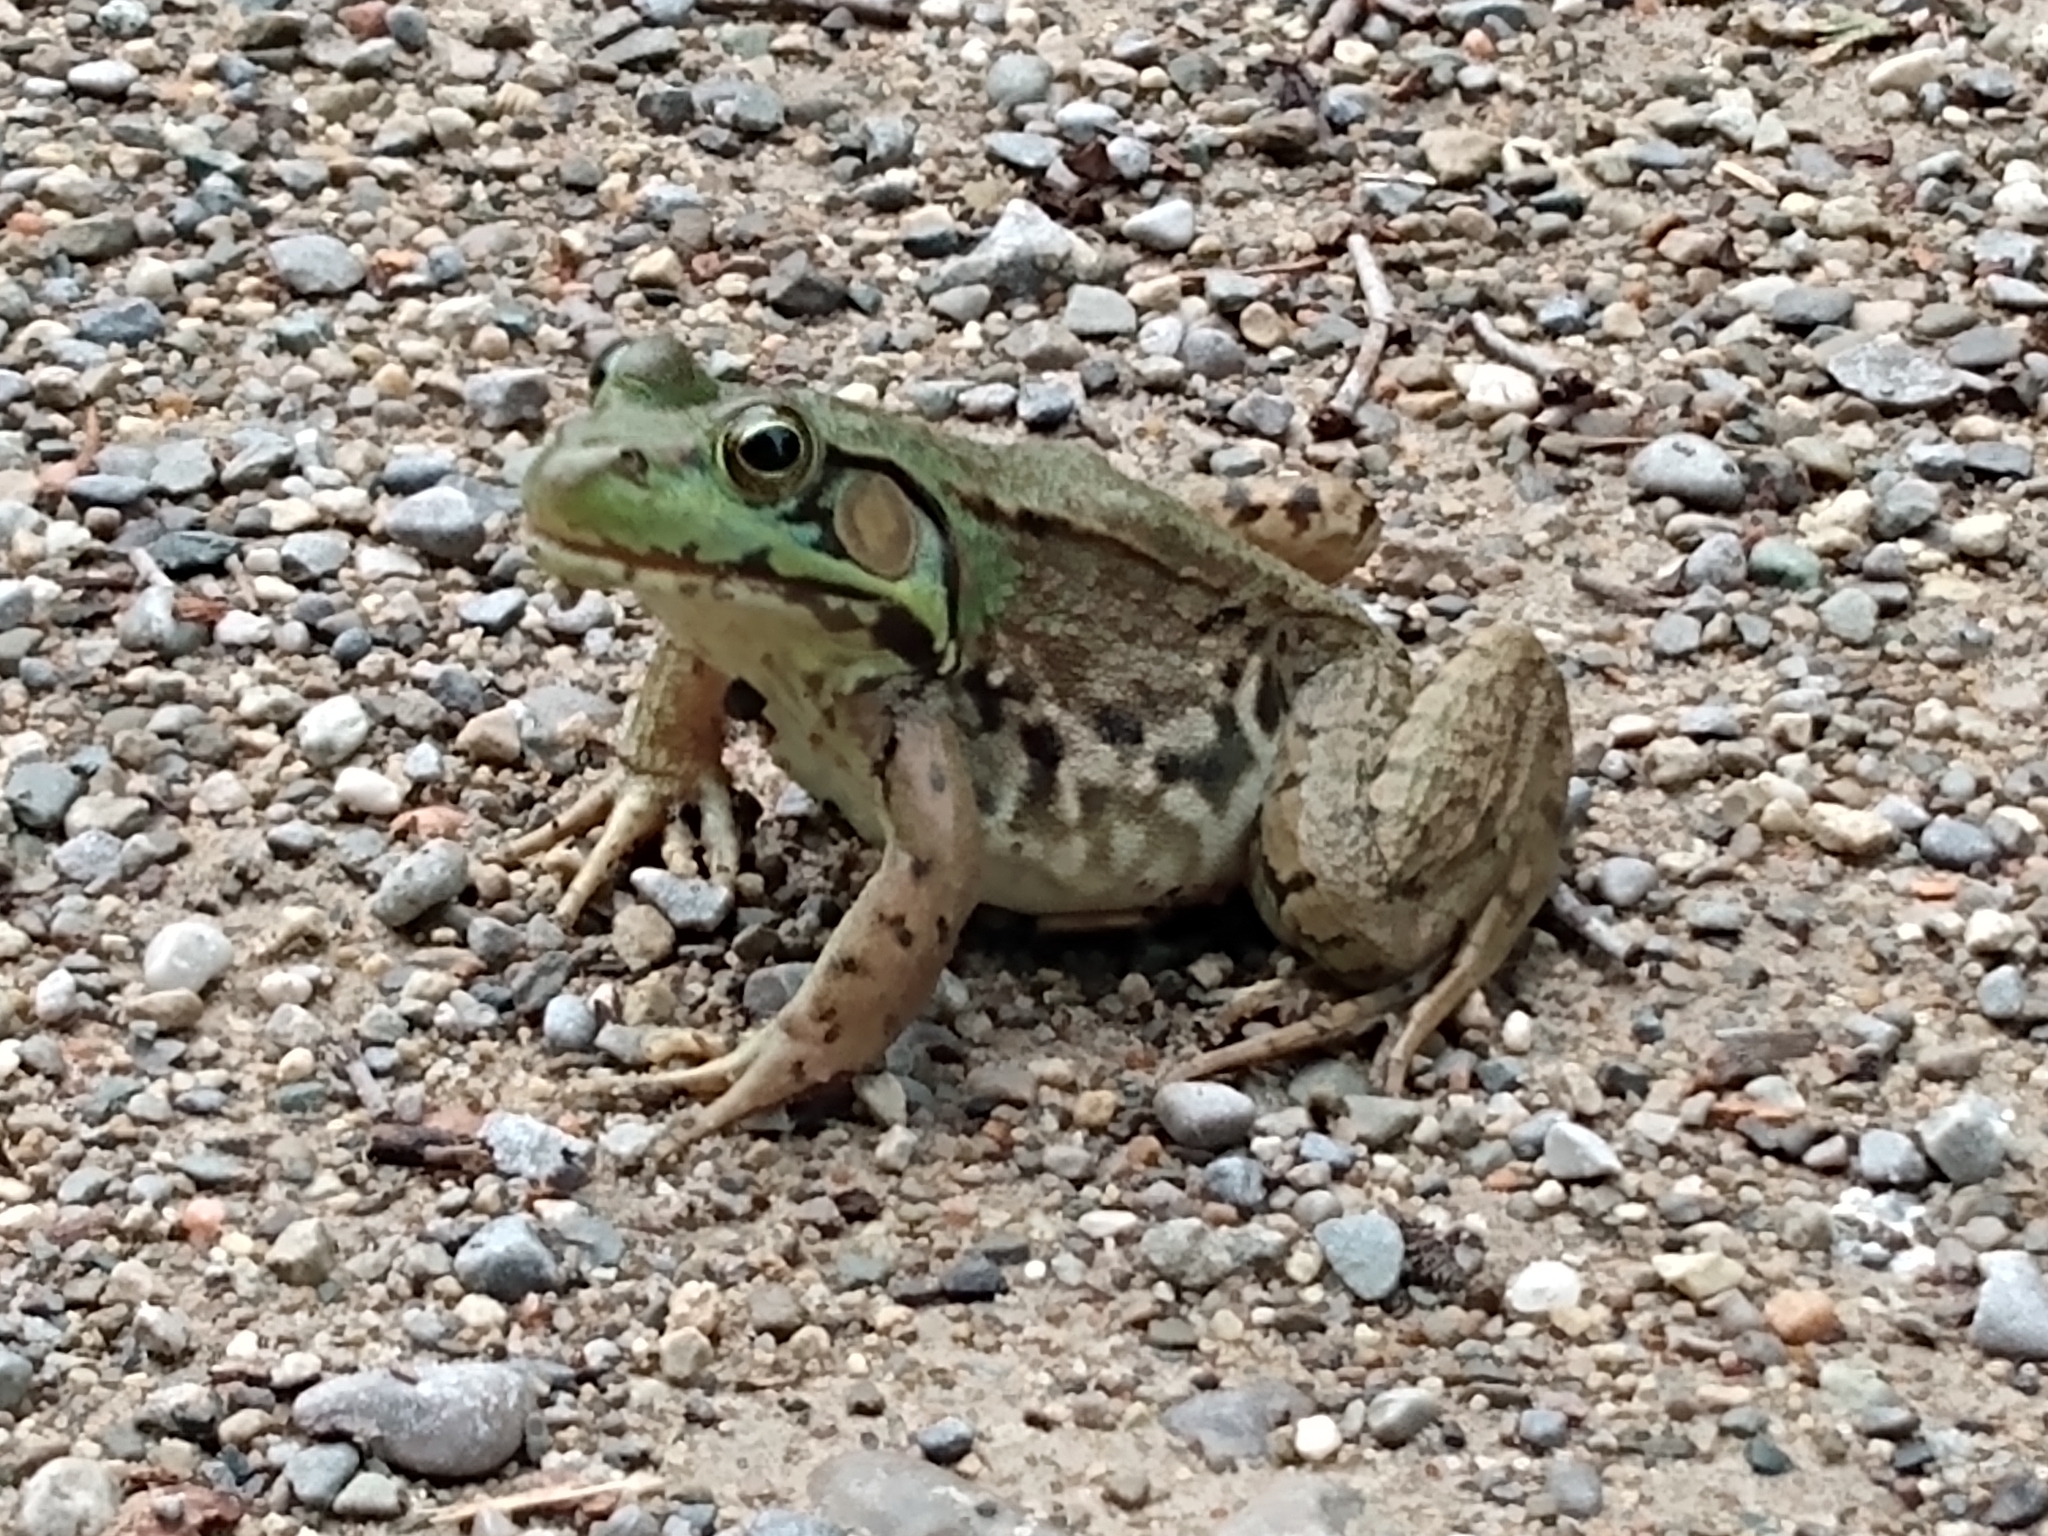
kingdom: Animalia
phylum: Chordata
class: Amphibia
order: Anura
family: Ranidae
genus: Lithobates
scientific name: Lithobates clamitans
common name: Green frog
